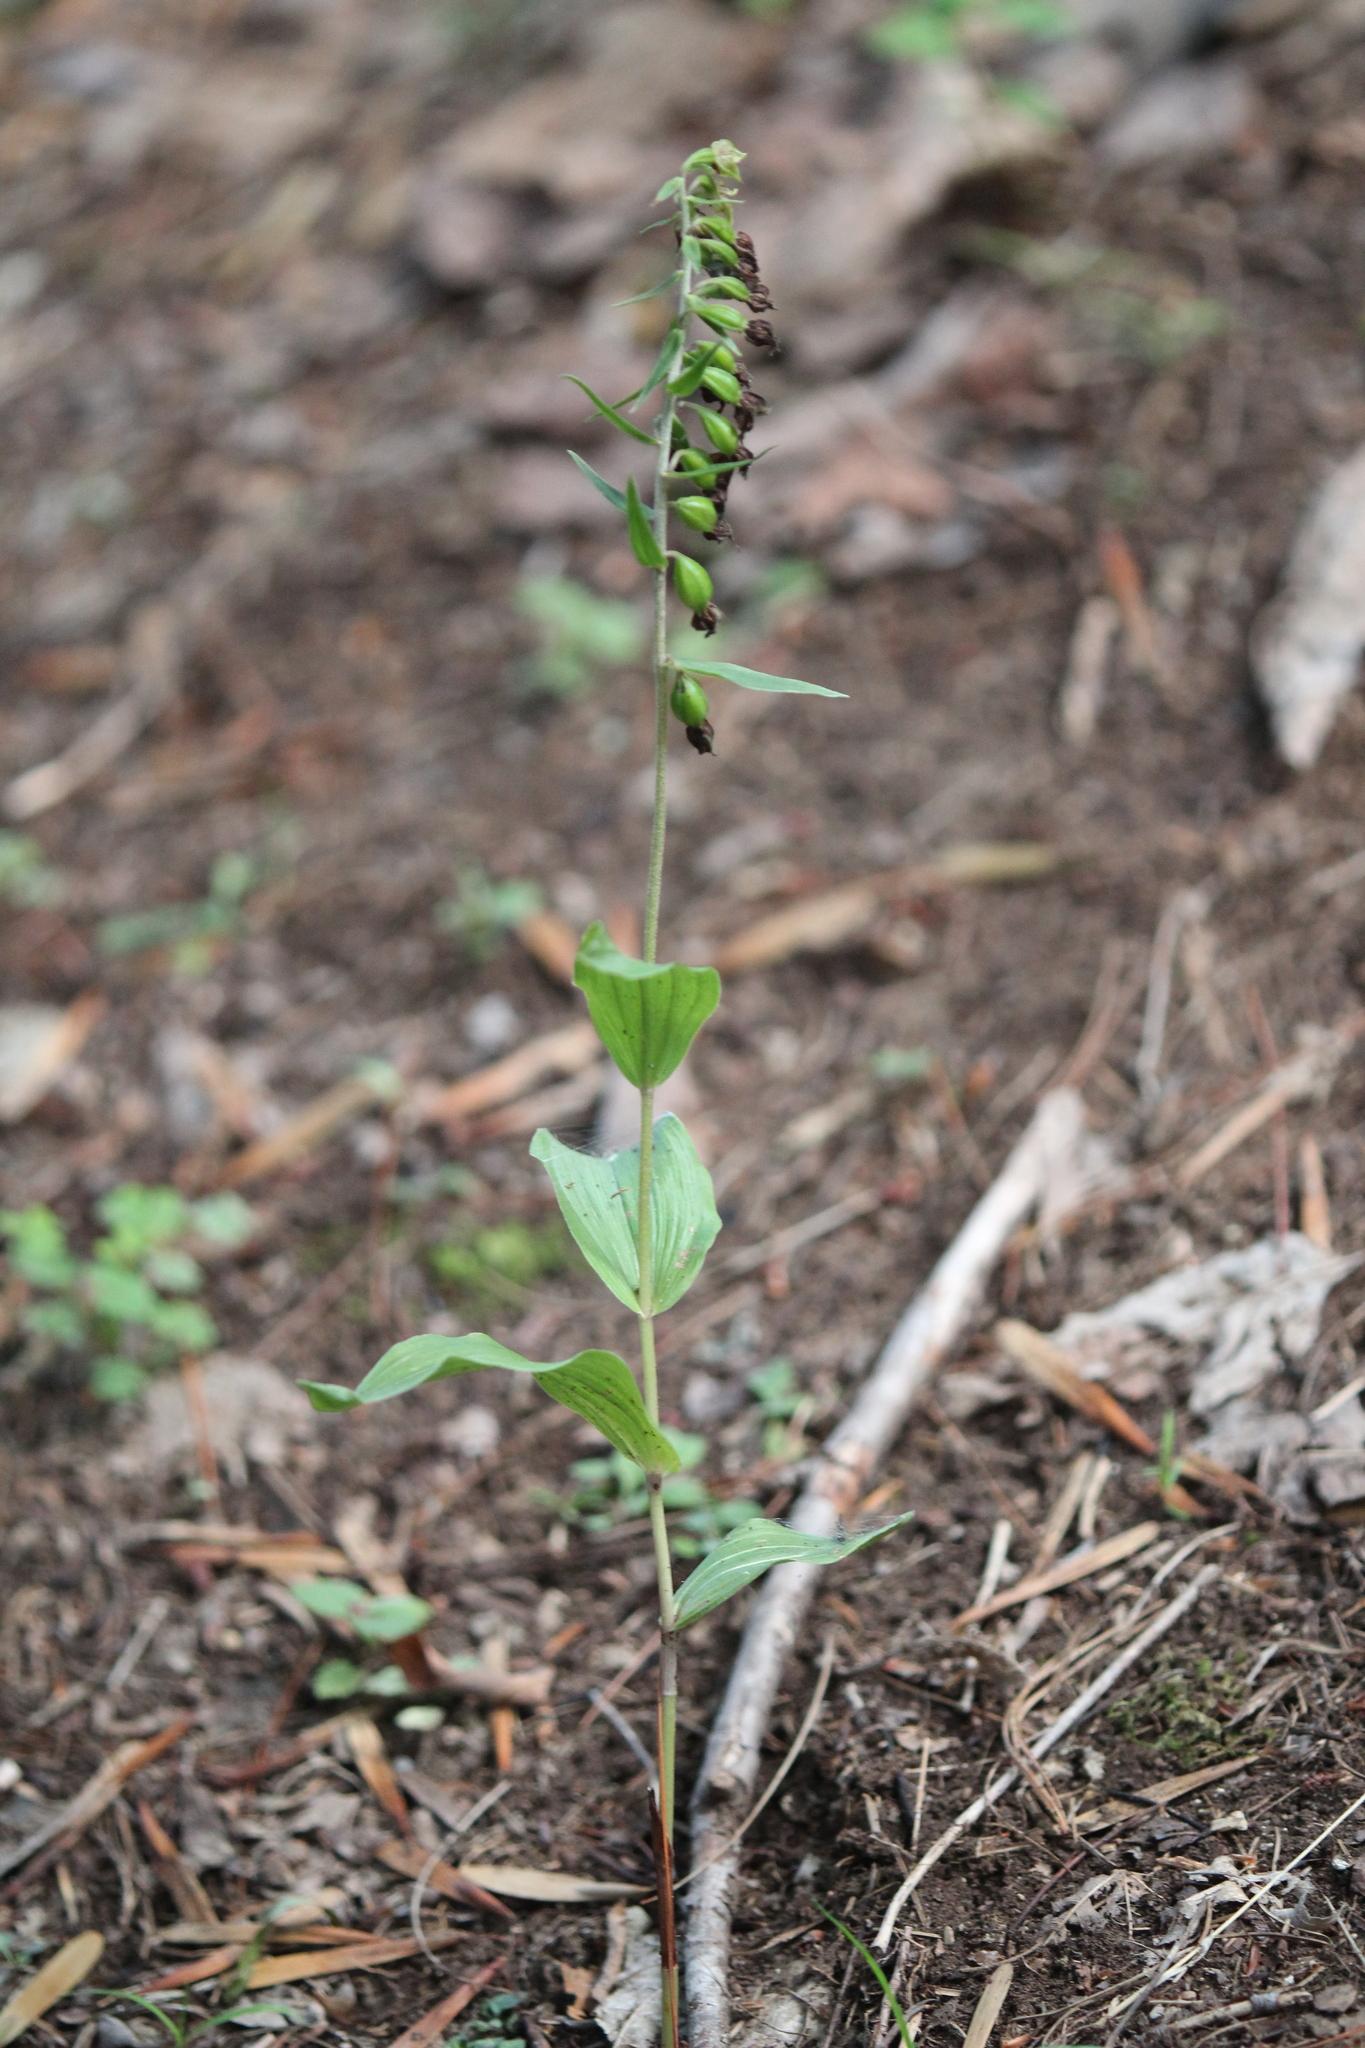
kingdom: Plantae
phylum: Tracheophyta
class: Liliopsida
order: Asparagales
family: Orchidaceae
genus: Epipactis
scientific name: Epipactis helleborine
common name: Broad-leaved helleborine
